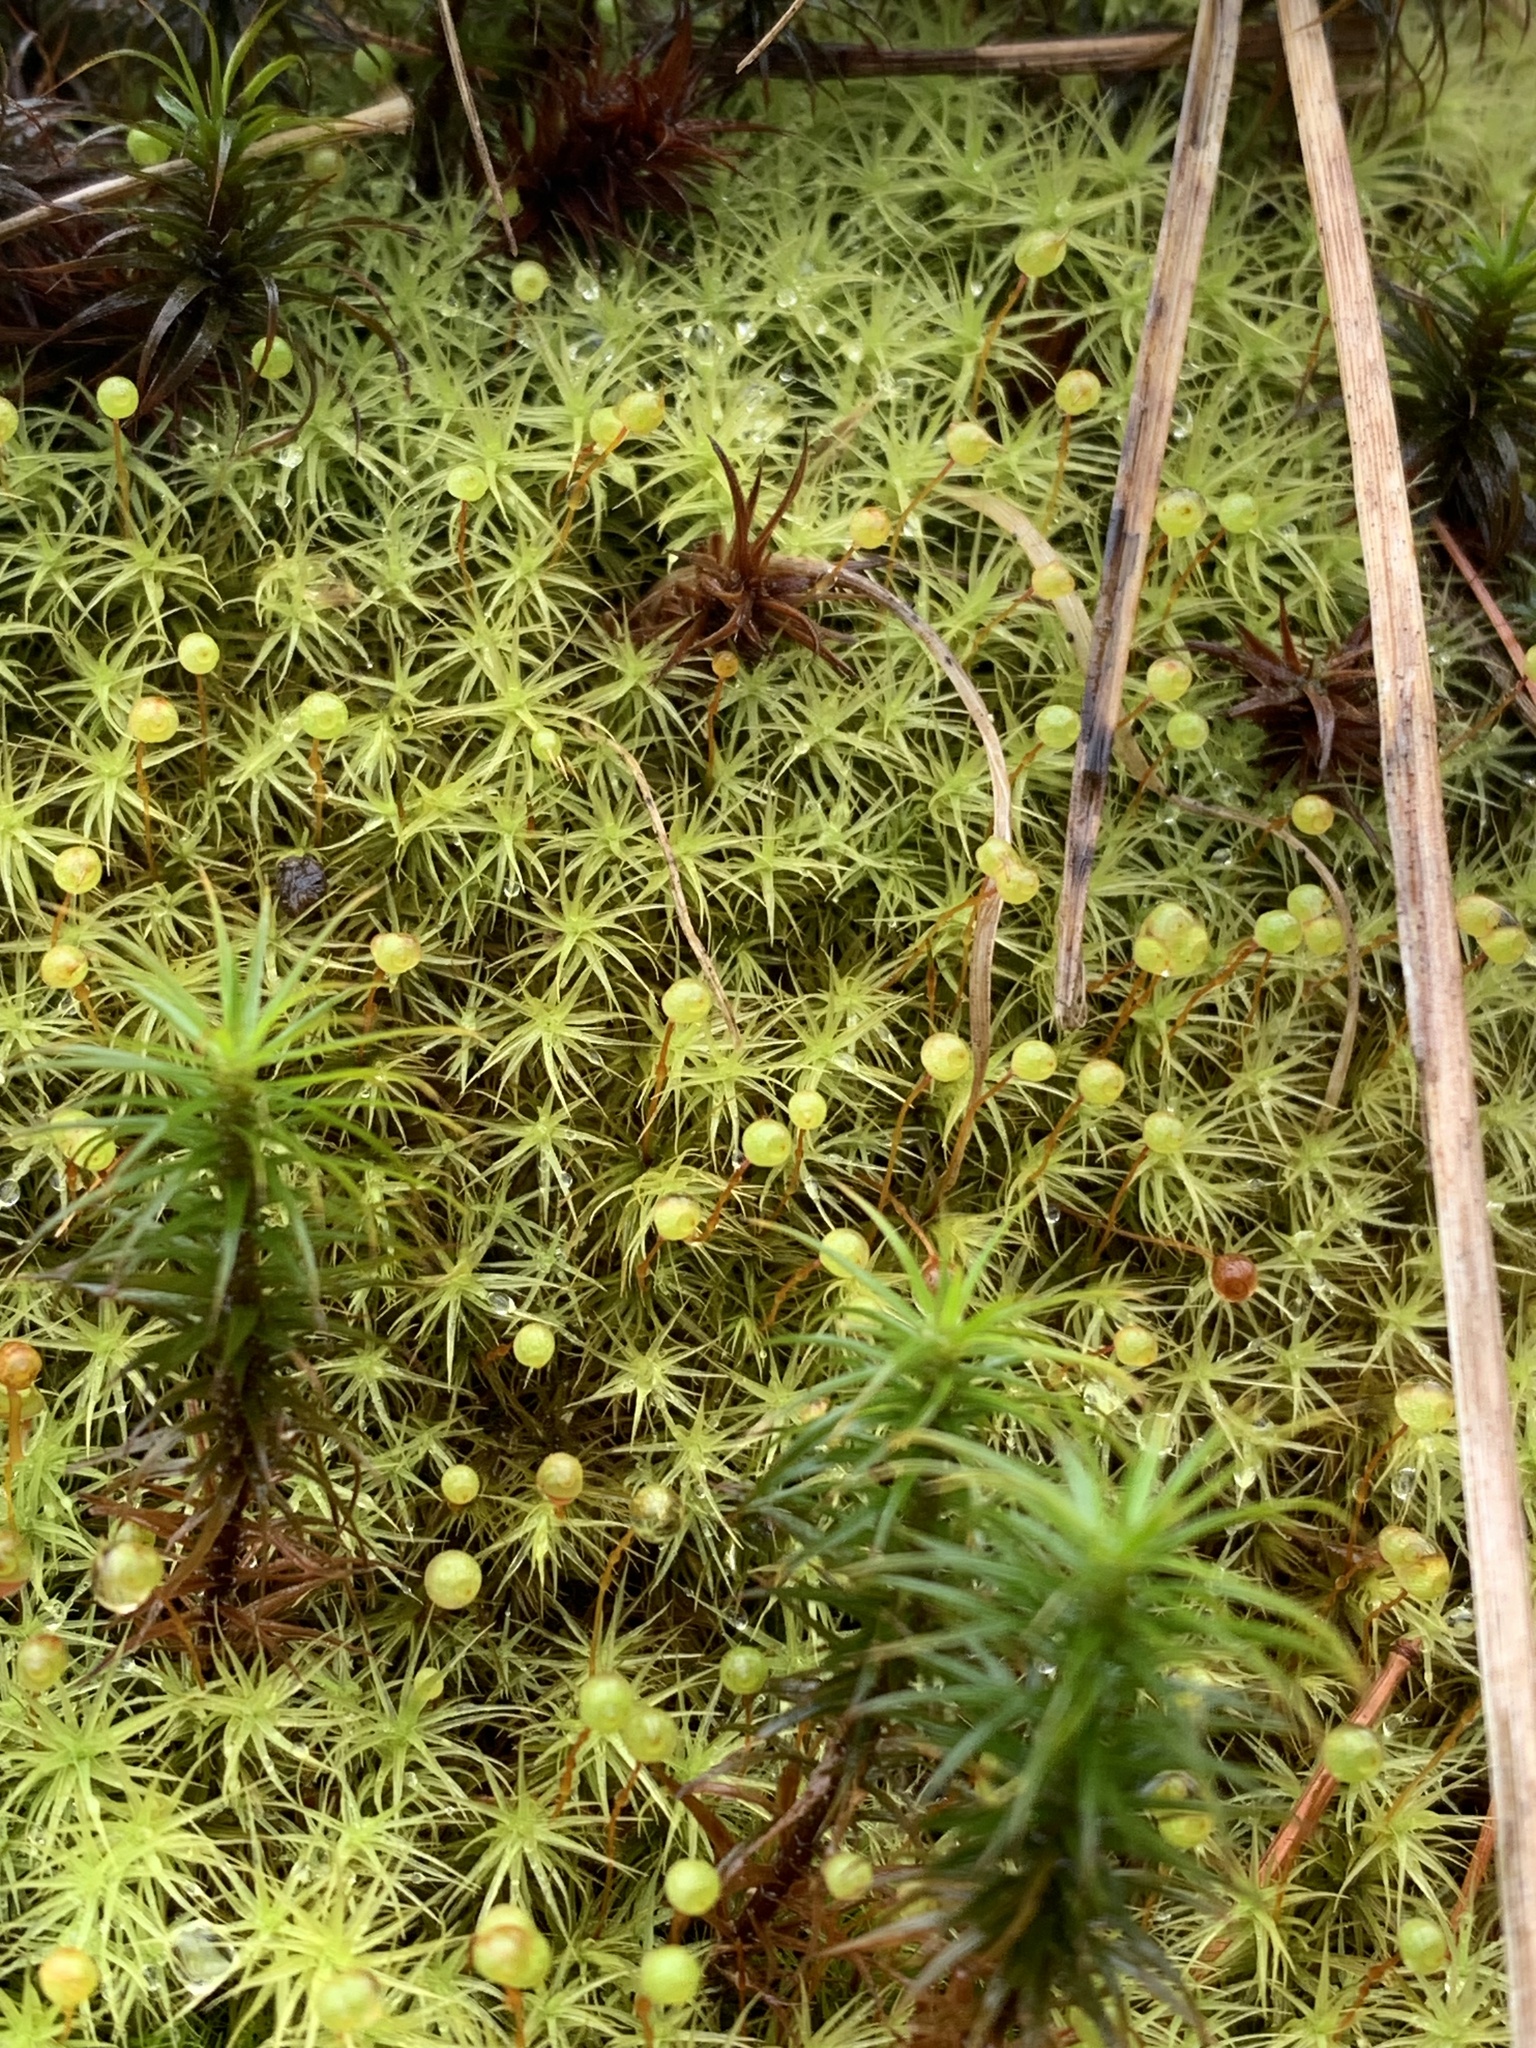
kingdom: Plantae
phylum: Bryophyta
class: Bryopsida
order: Bartramiales
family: Bartramiaceae
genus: Bartramia
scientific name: Bartramia ithyphylla
